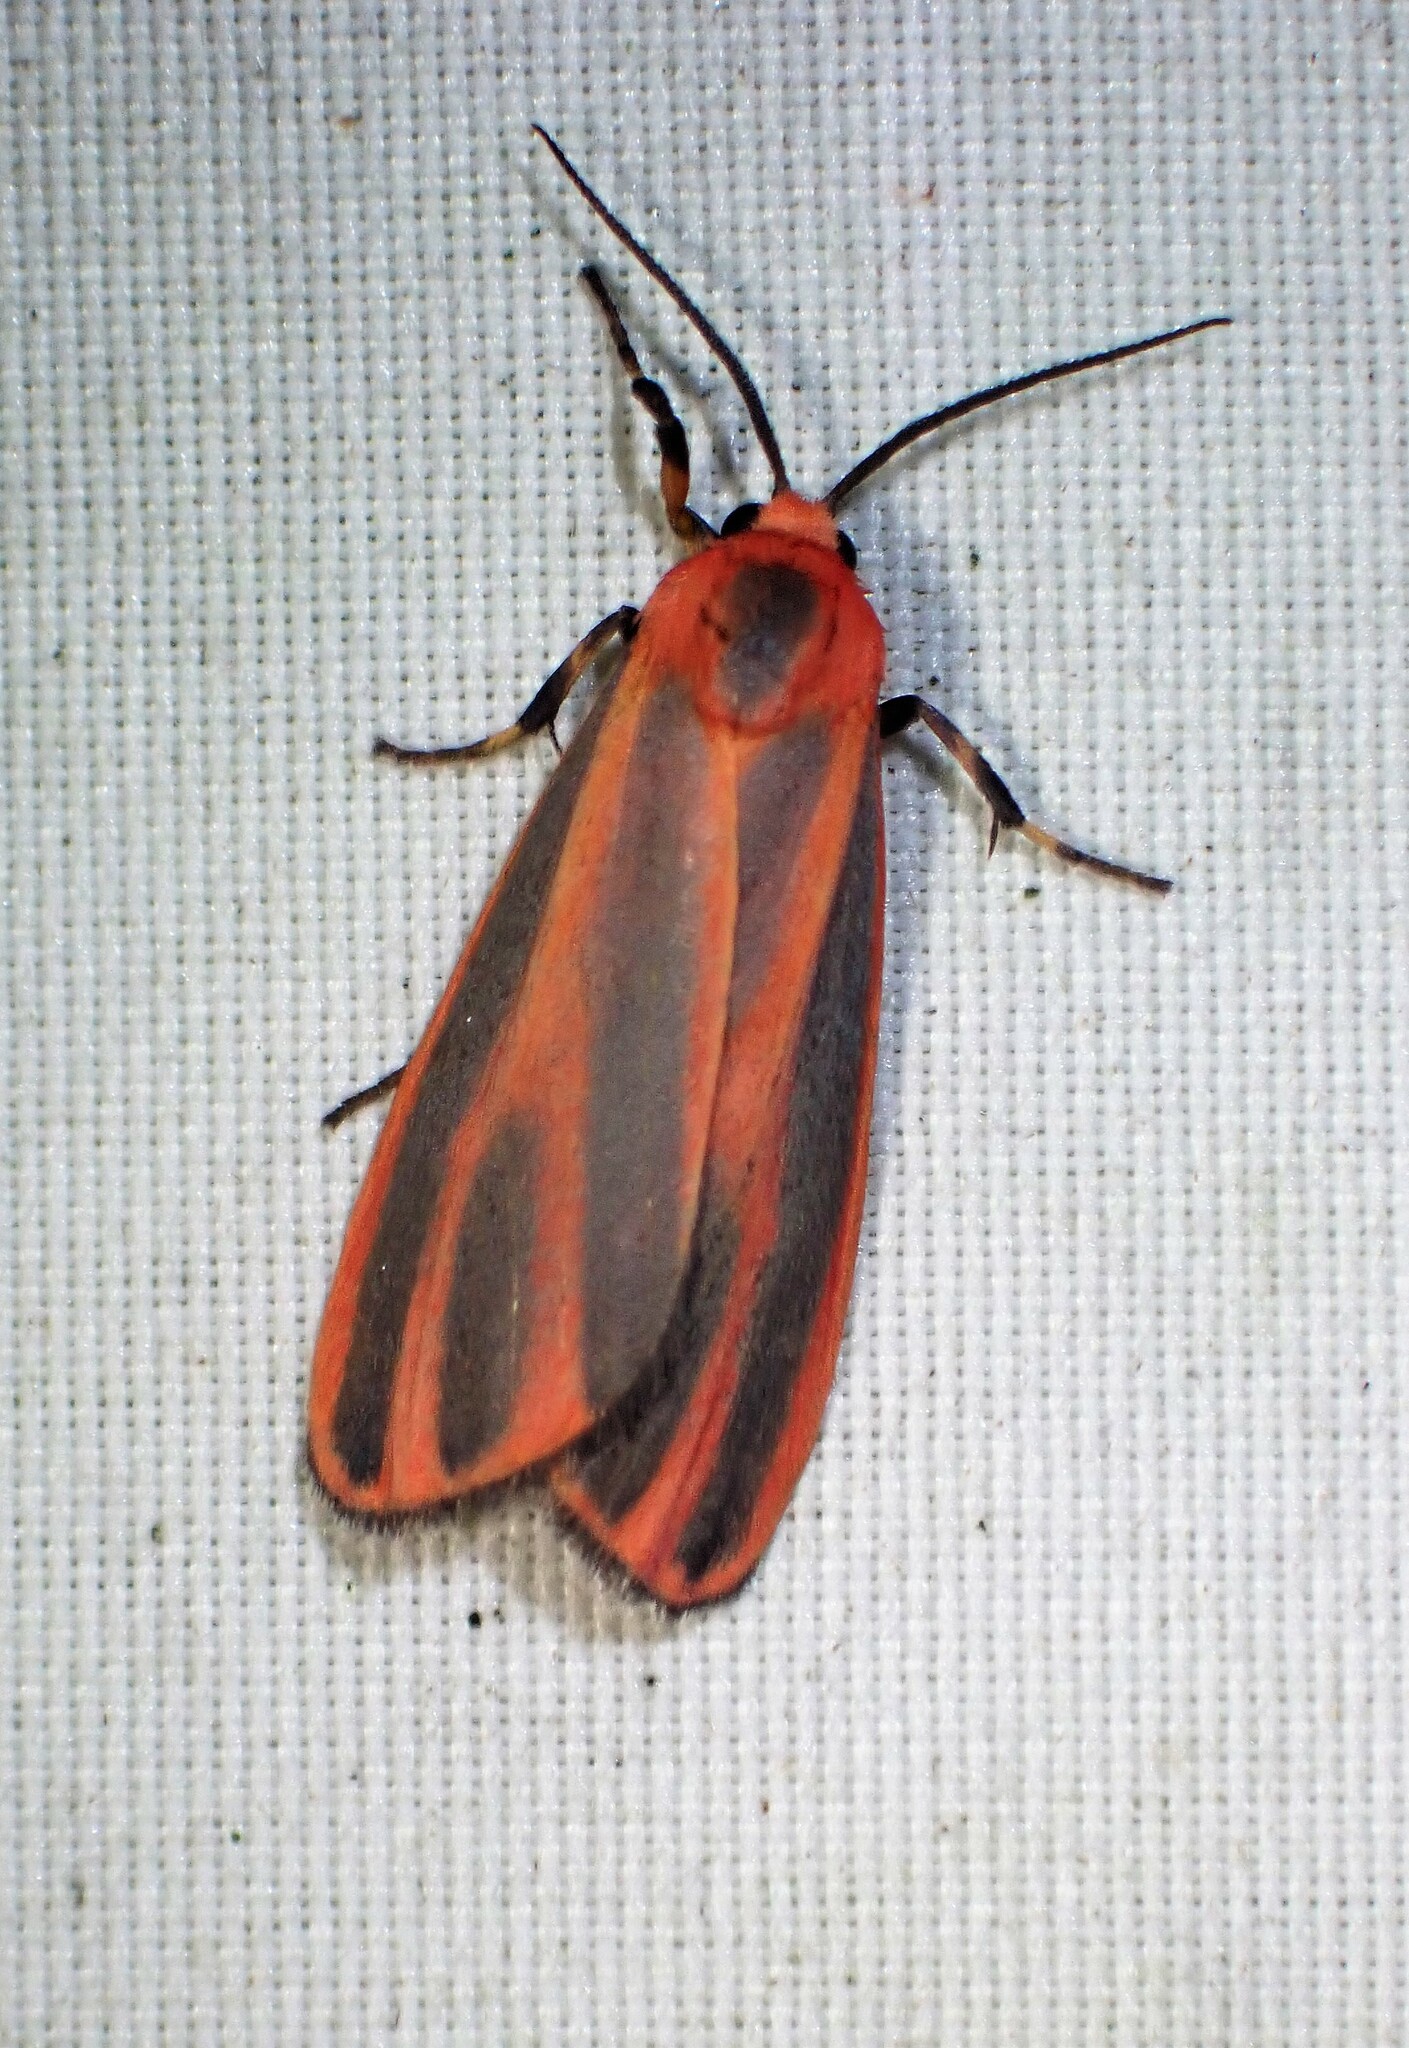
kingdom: Animalia
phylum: Arthropoda
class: Insecta
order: Lepidoptera
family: Erebidae
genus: Hypoprepia
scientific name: Hypoprepia miniata
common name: Scarlet-winged lichen moth
